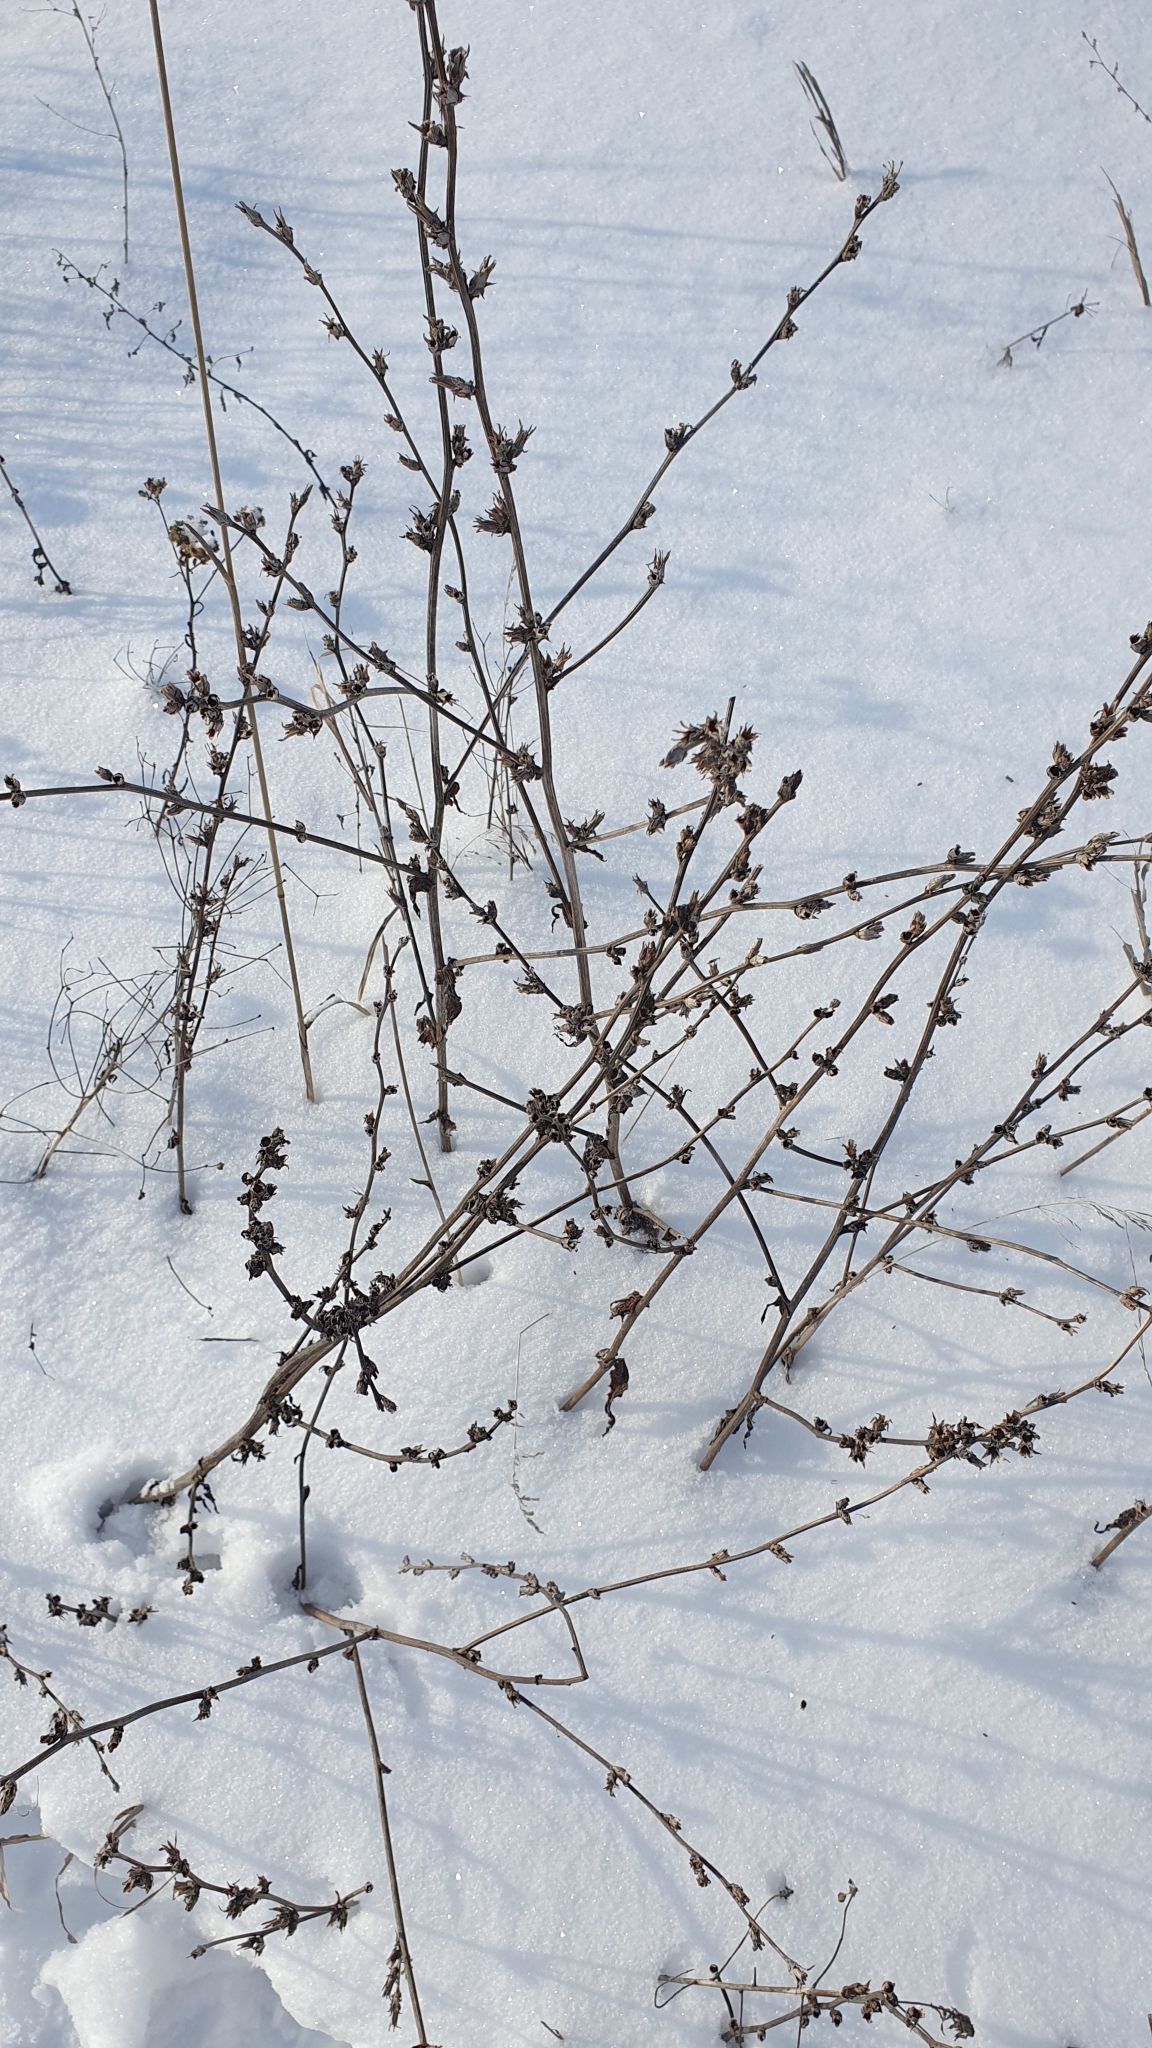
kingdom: Plantae
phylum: Tracheophyta
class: Magnoliopsida
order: Asterales
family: Asteraceae
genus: Cichorium
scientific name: Cichorium intybus
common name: Chicory
